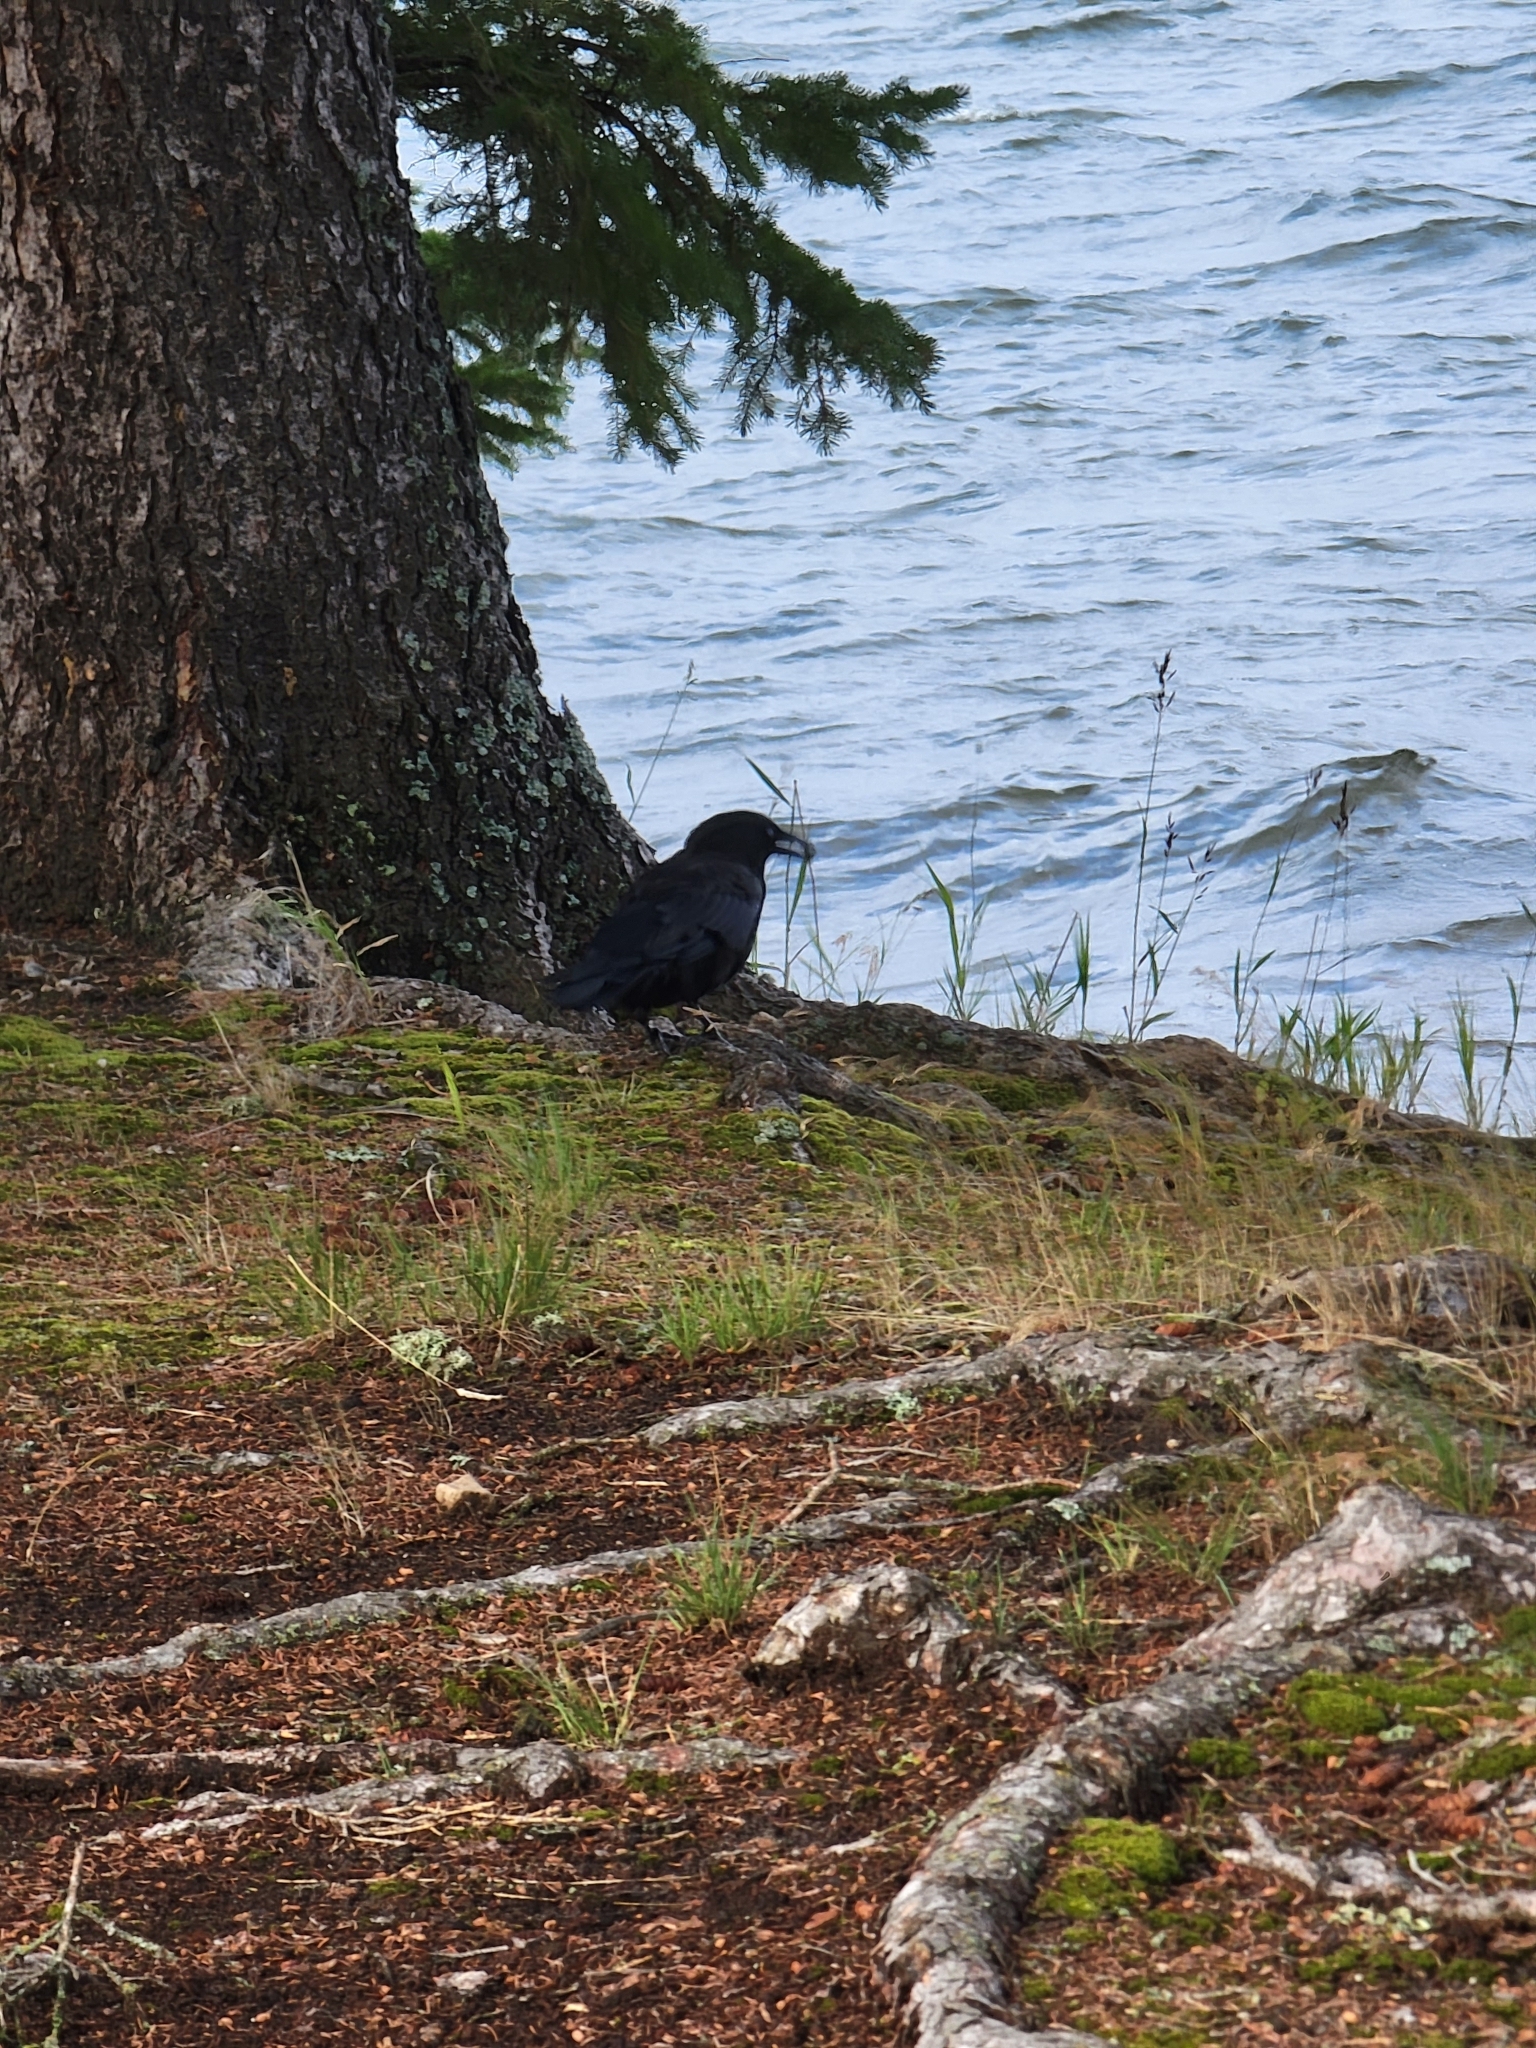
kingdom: Animalia
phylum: Chordata
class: Aves
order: Passeriformes
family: Corvidae
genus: Corvus
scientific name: Corvus brachyrhynchos
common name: American crow
